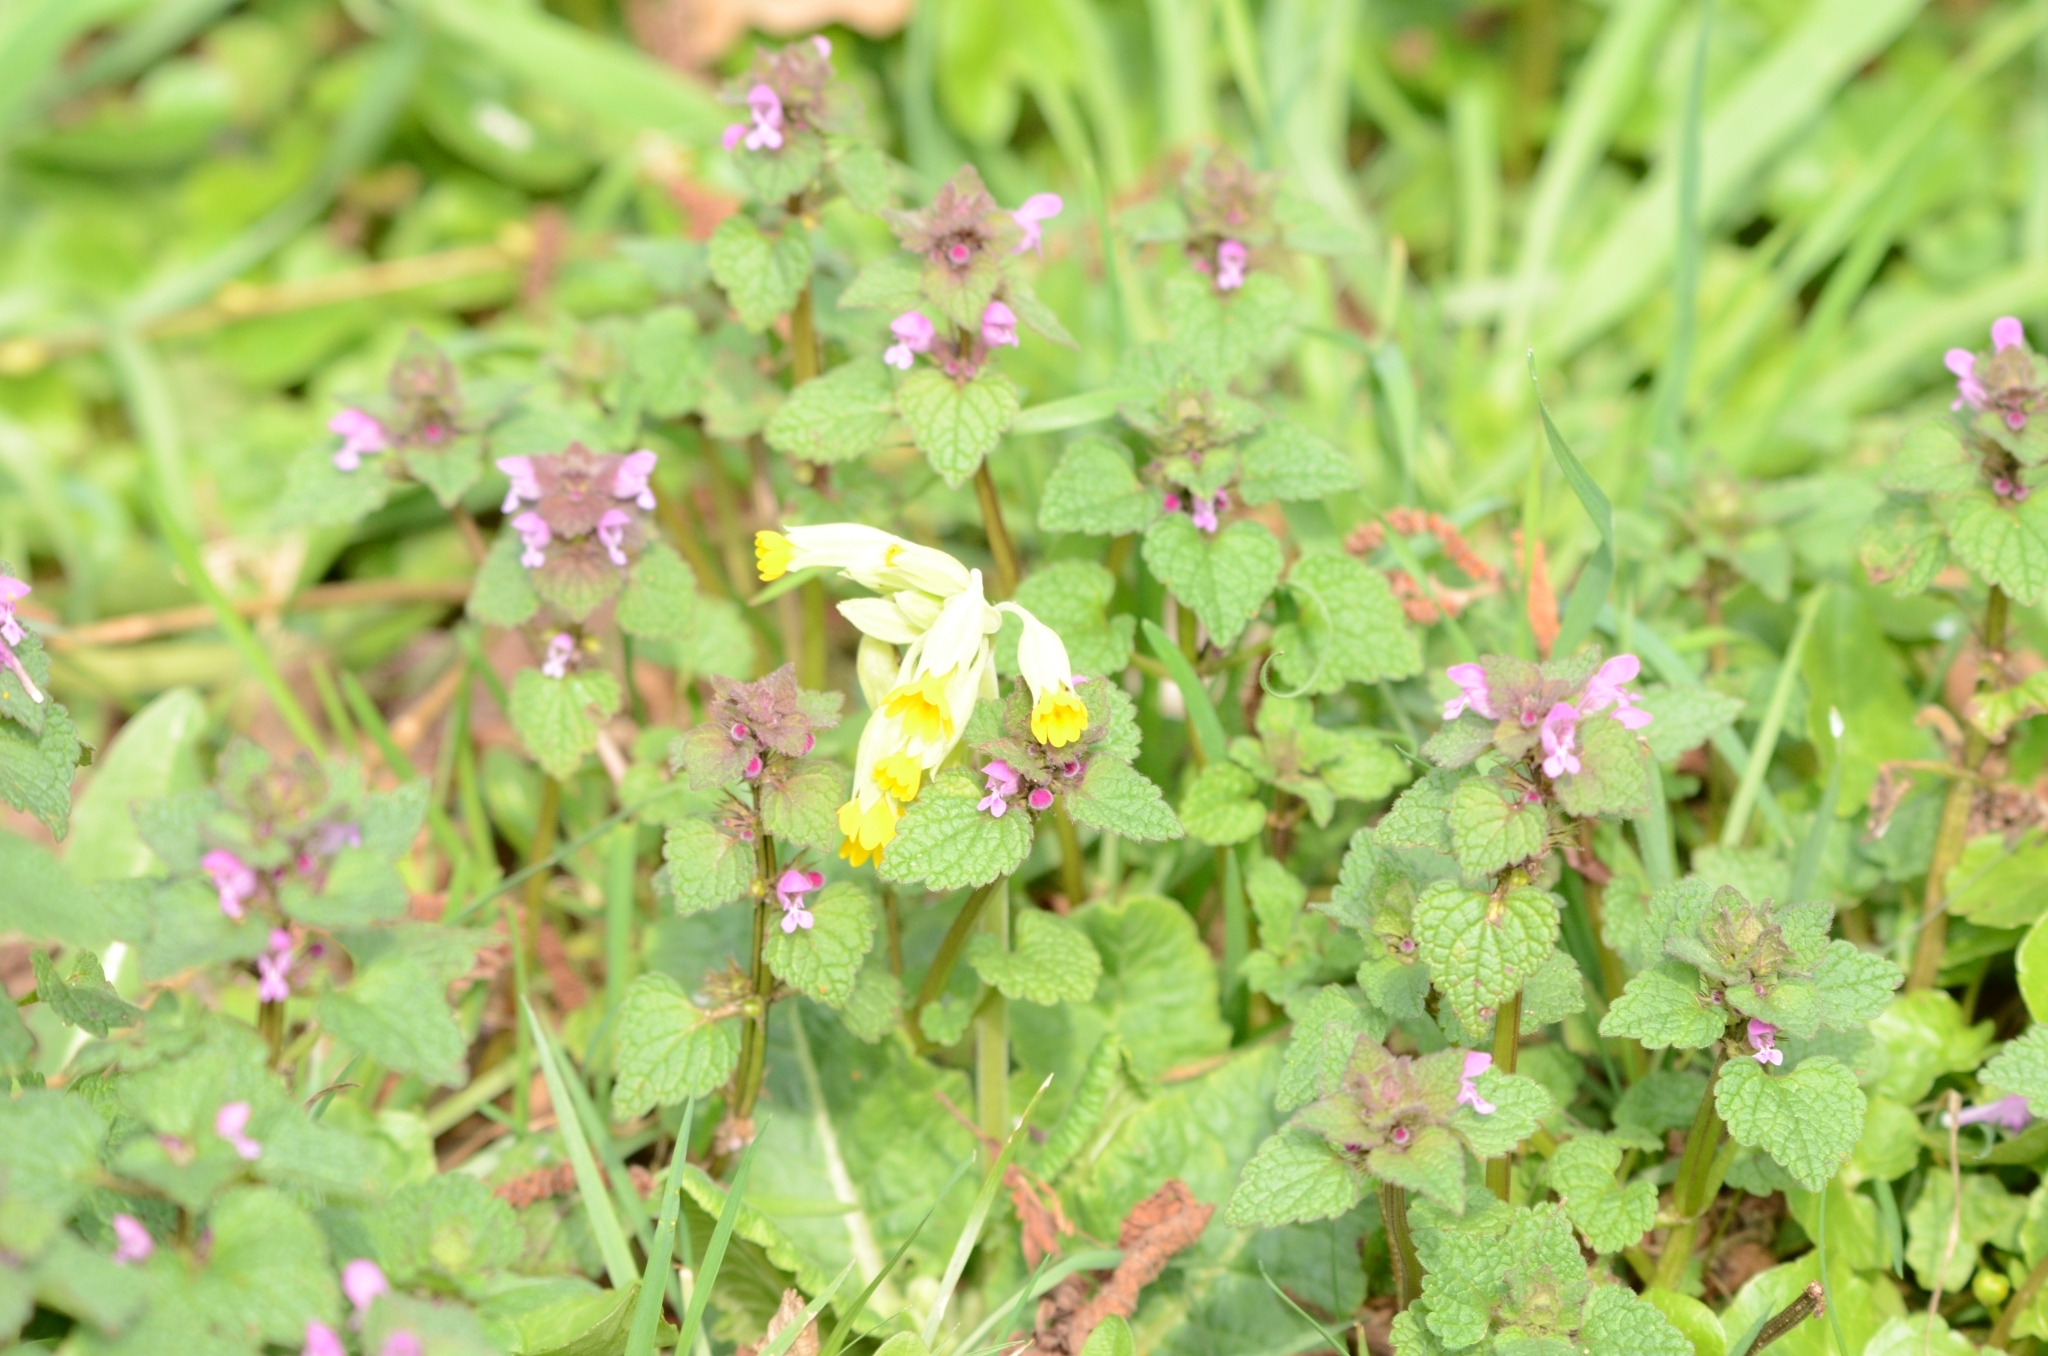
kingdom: Plantae
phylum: Tracheophyta
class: Magnoliopsida
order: Lamiales
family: Lamiaceae
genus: Lamium
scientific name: Lamium purpureum
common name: Red dead-nettle
